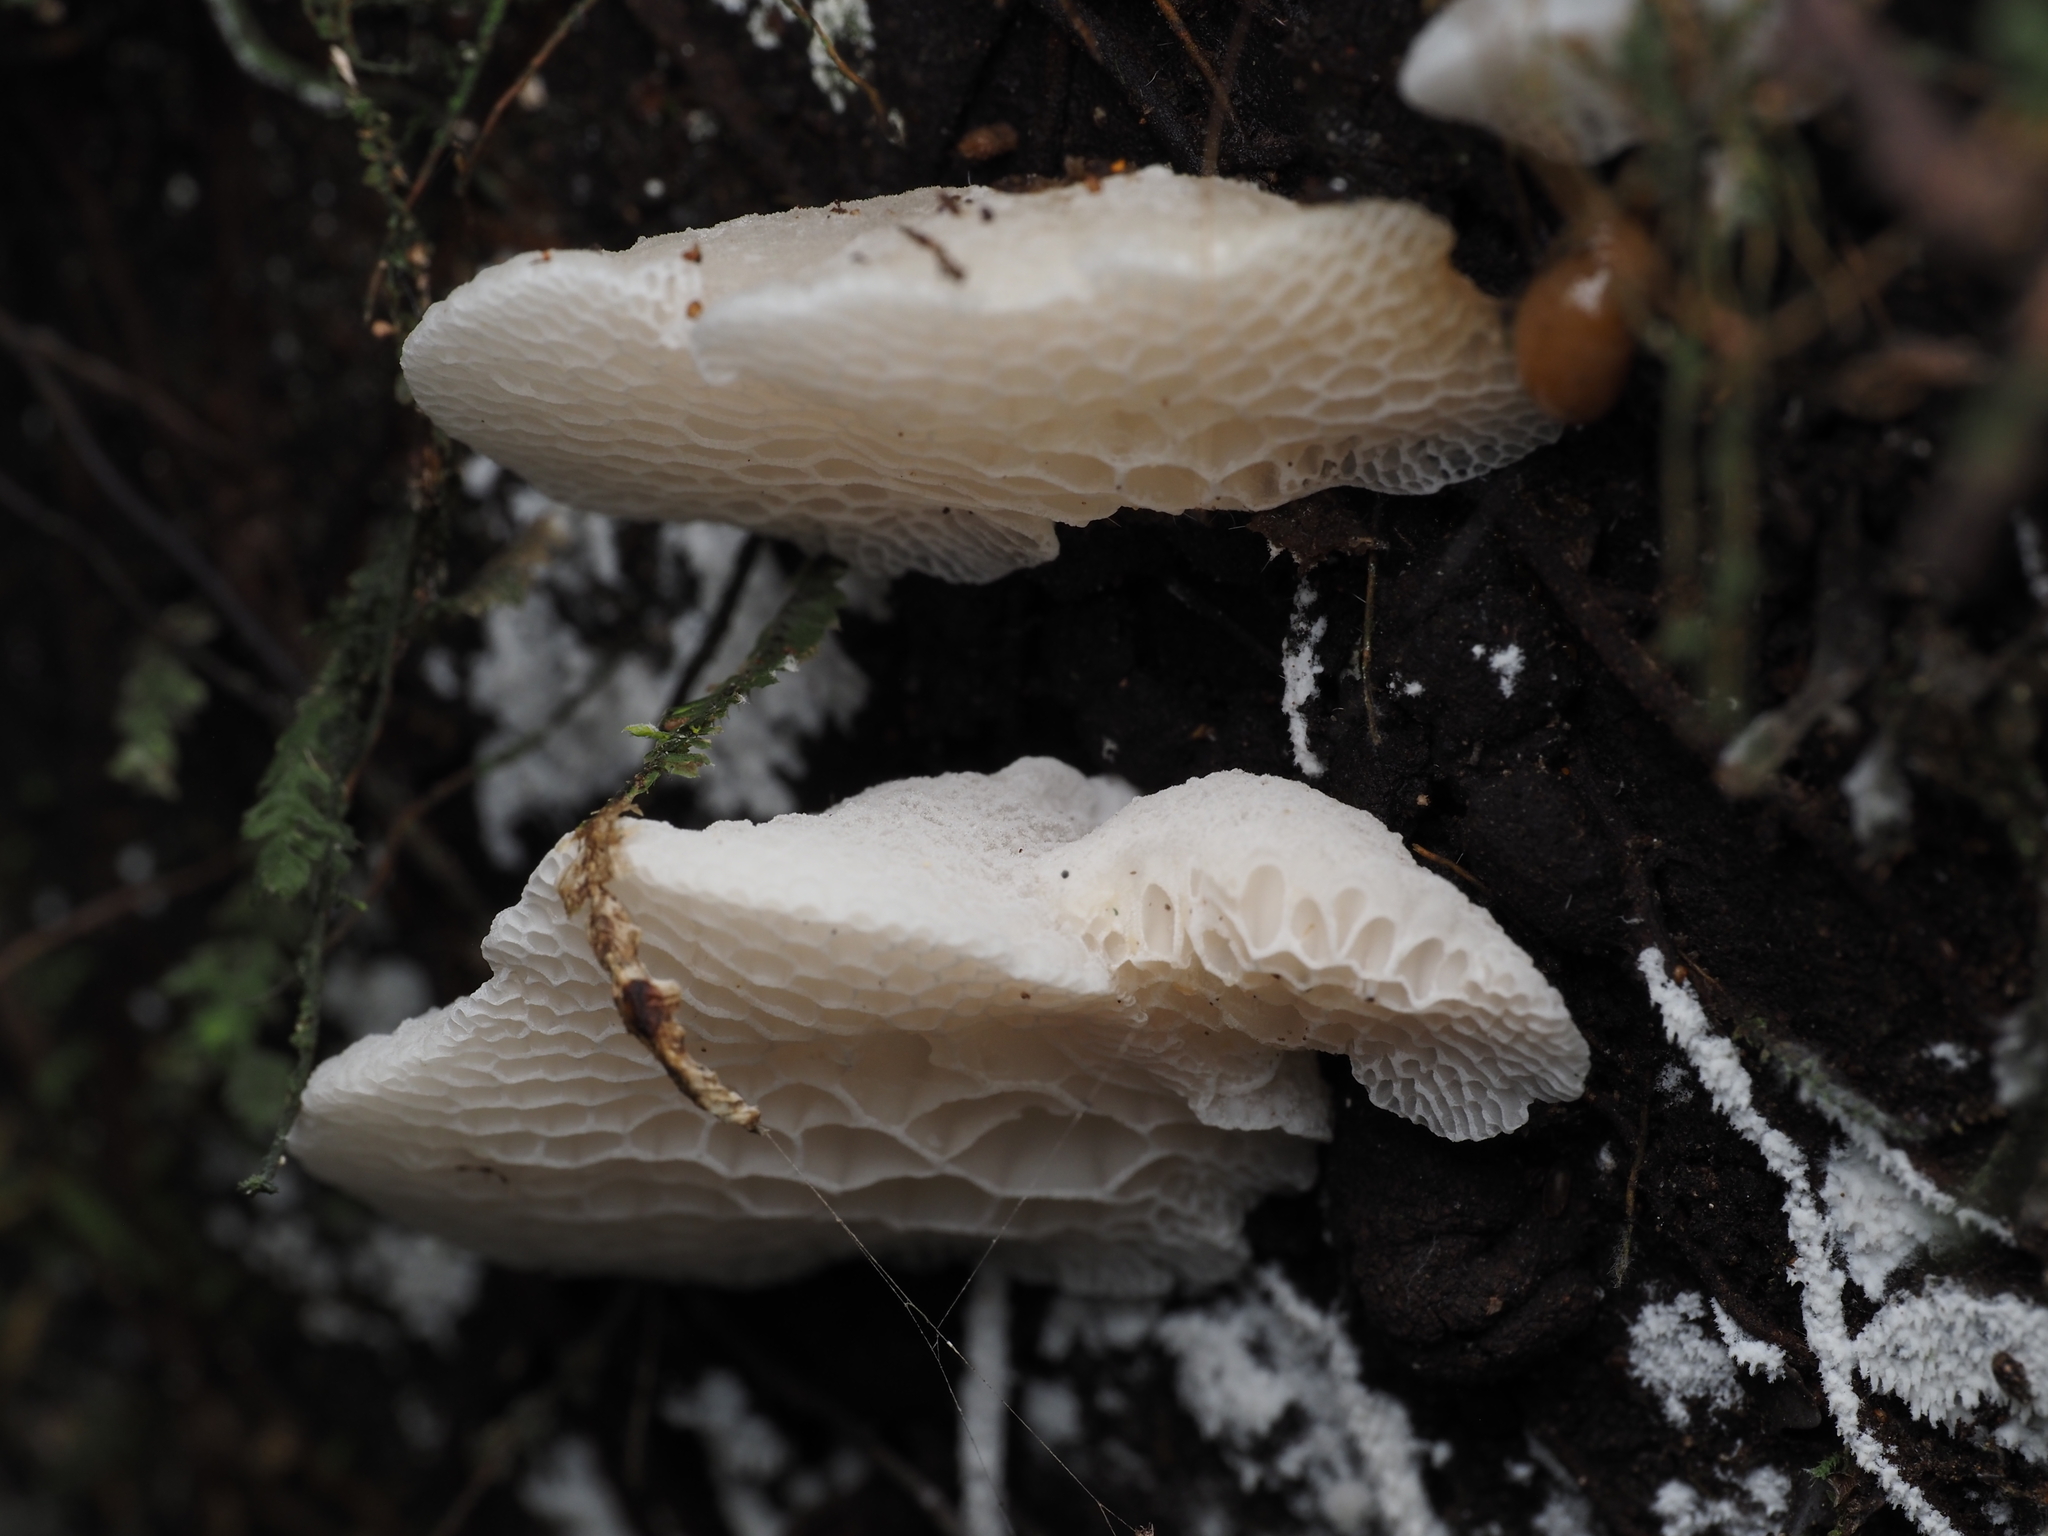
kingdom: Fungi
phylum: Basidiomycota
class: Agaricomycetes
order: Agaricales
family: Mycenaceae
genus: Favolaschia
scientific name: Favolaschia pustulosa
